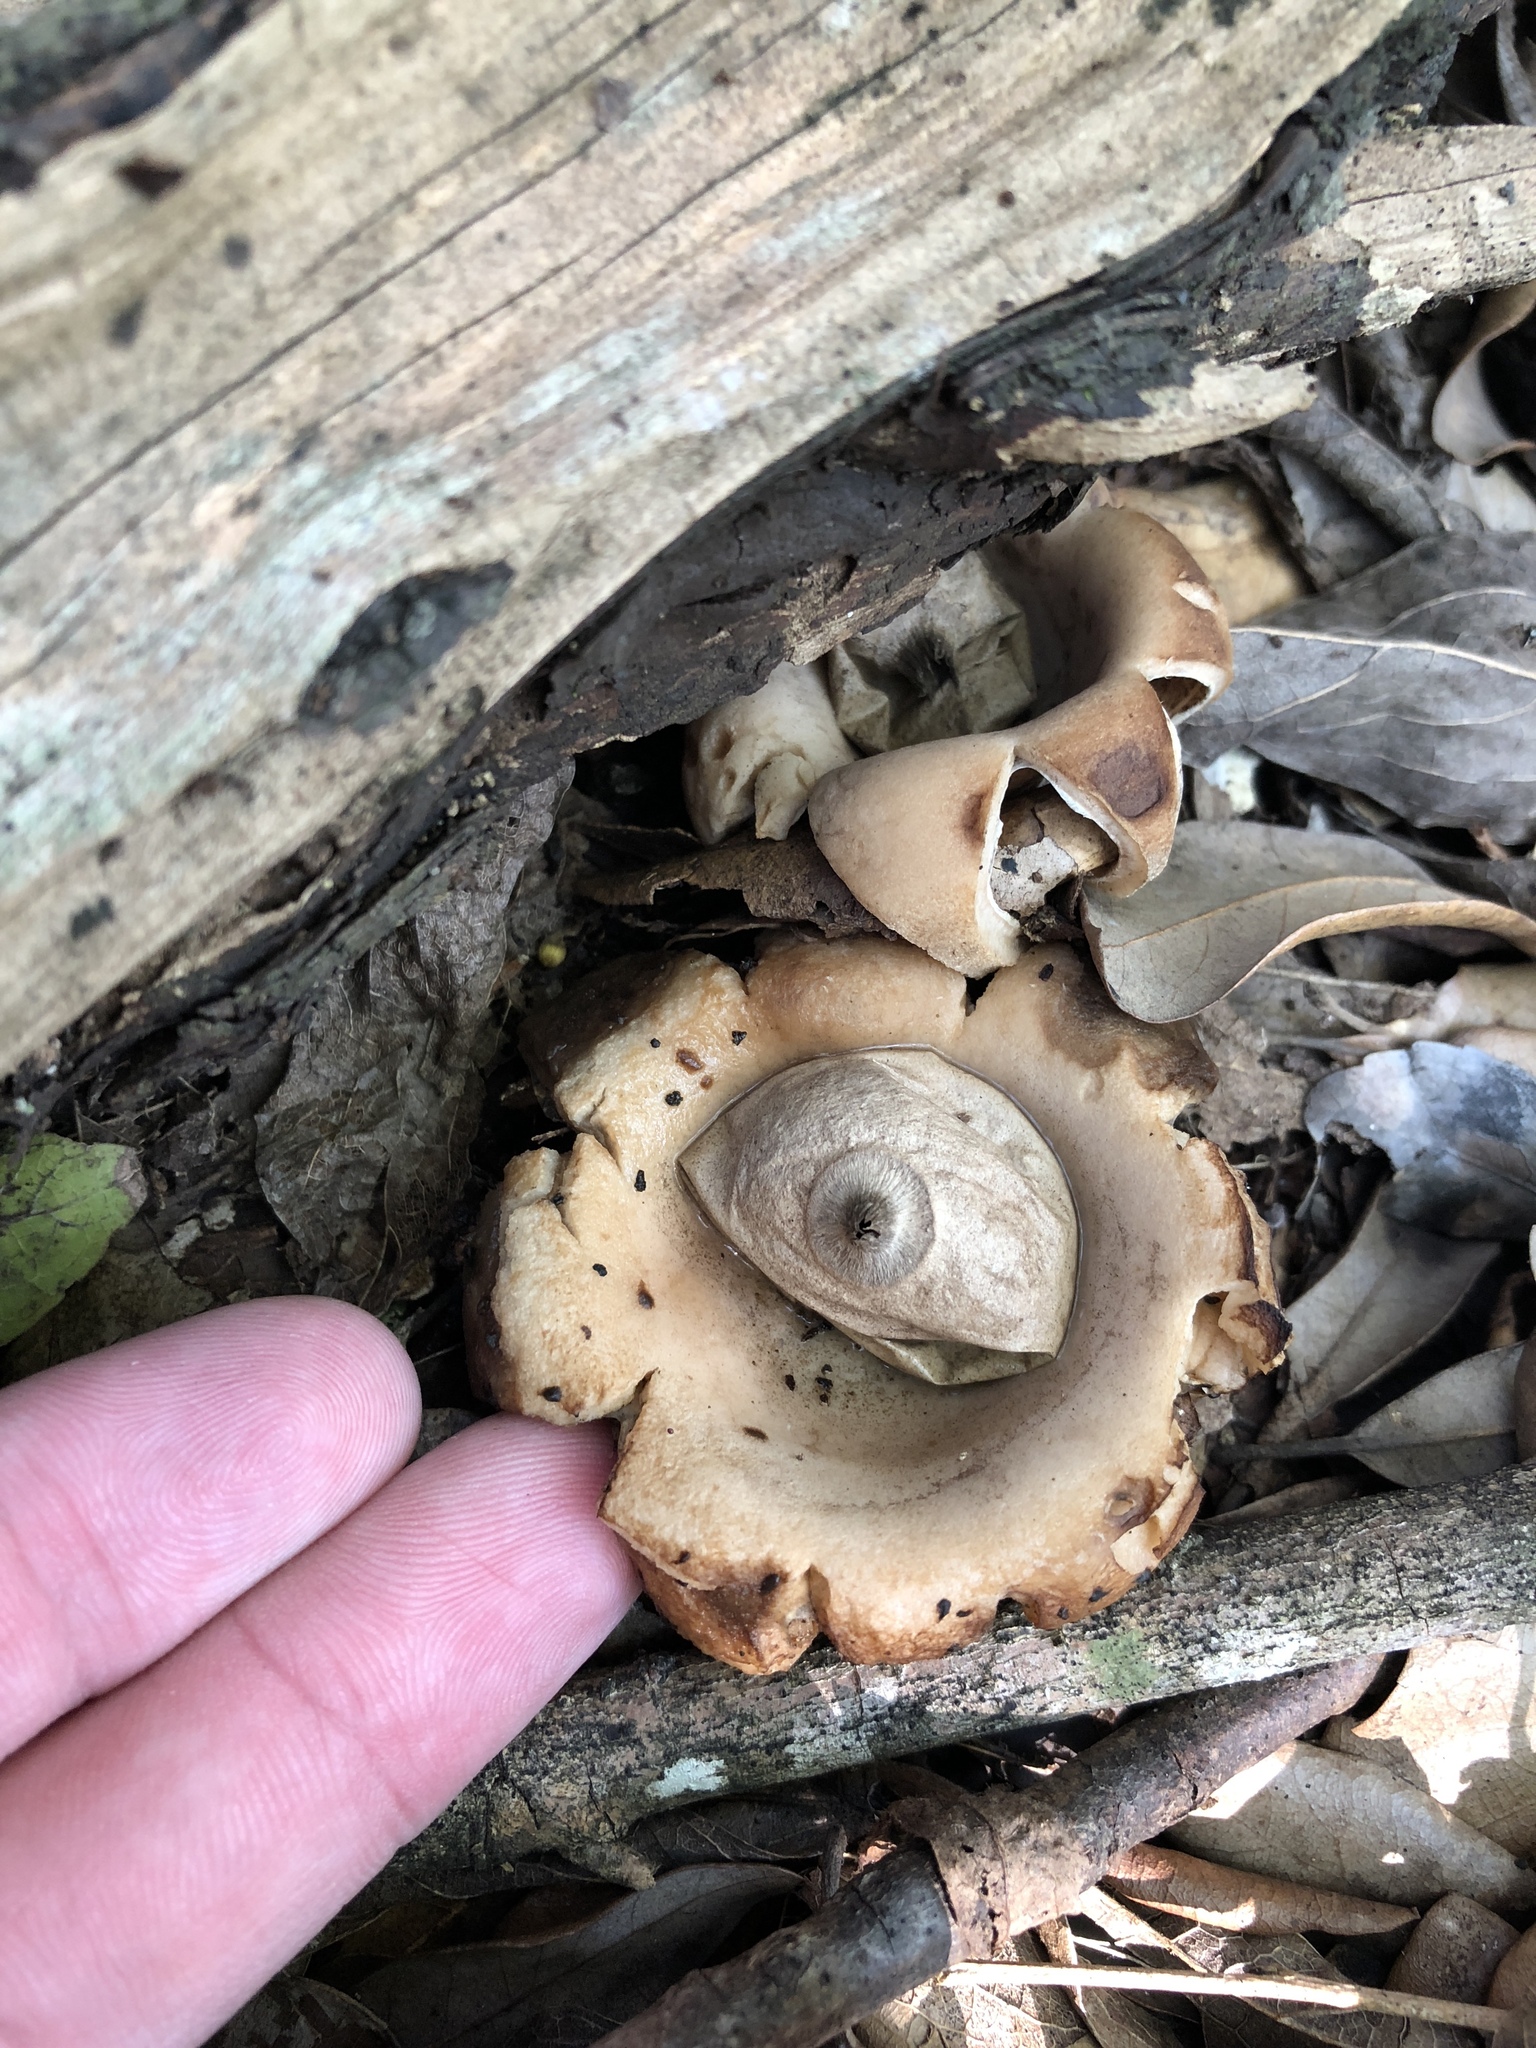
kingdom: Fungi
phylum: Basidiomycota
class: Agaricomycetes
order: Geastrales
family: Geastraceae
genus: Geastrum
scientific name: Geastrum saccatum
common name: Rounded earthstar
